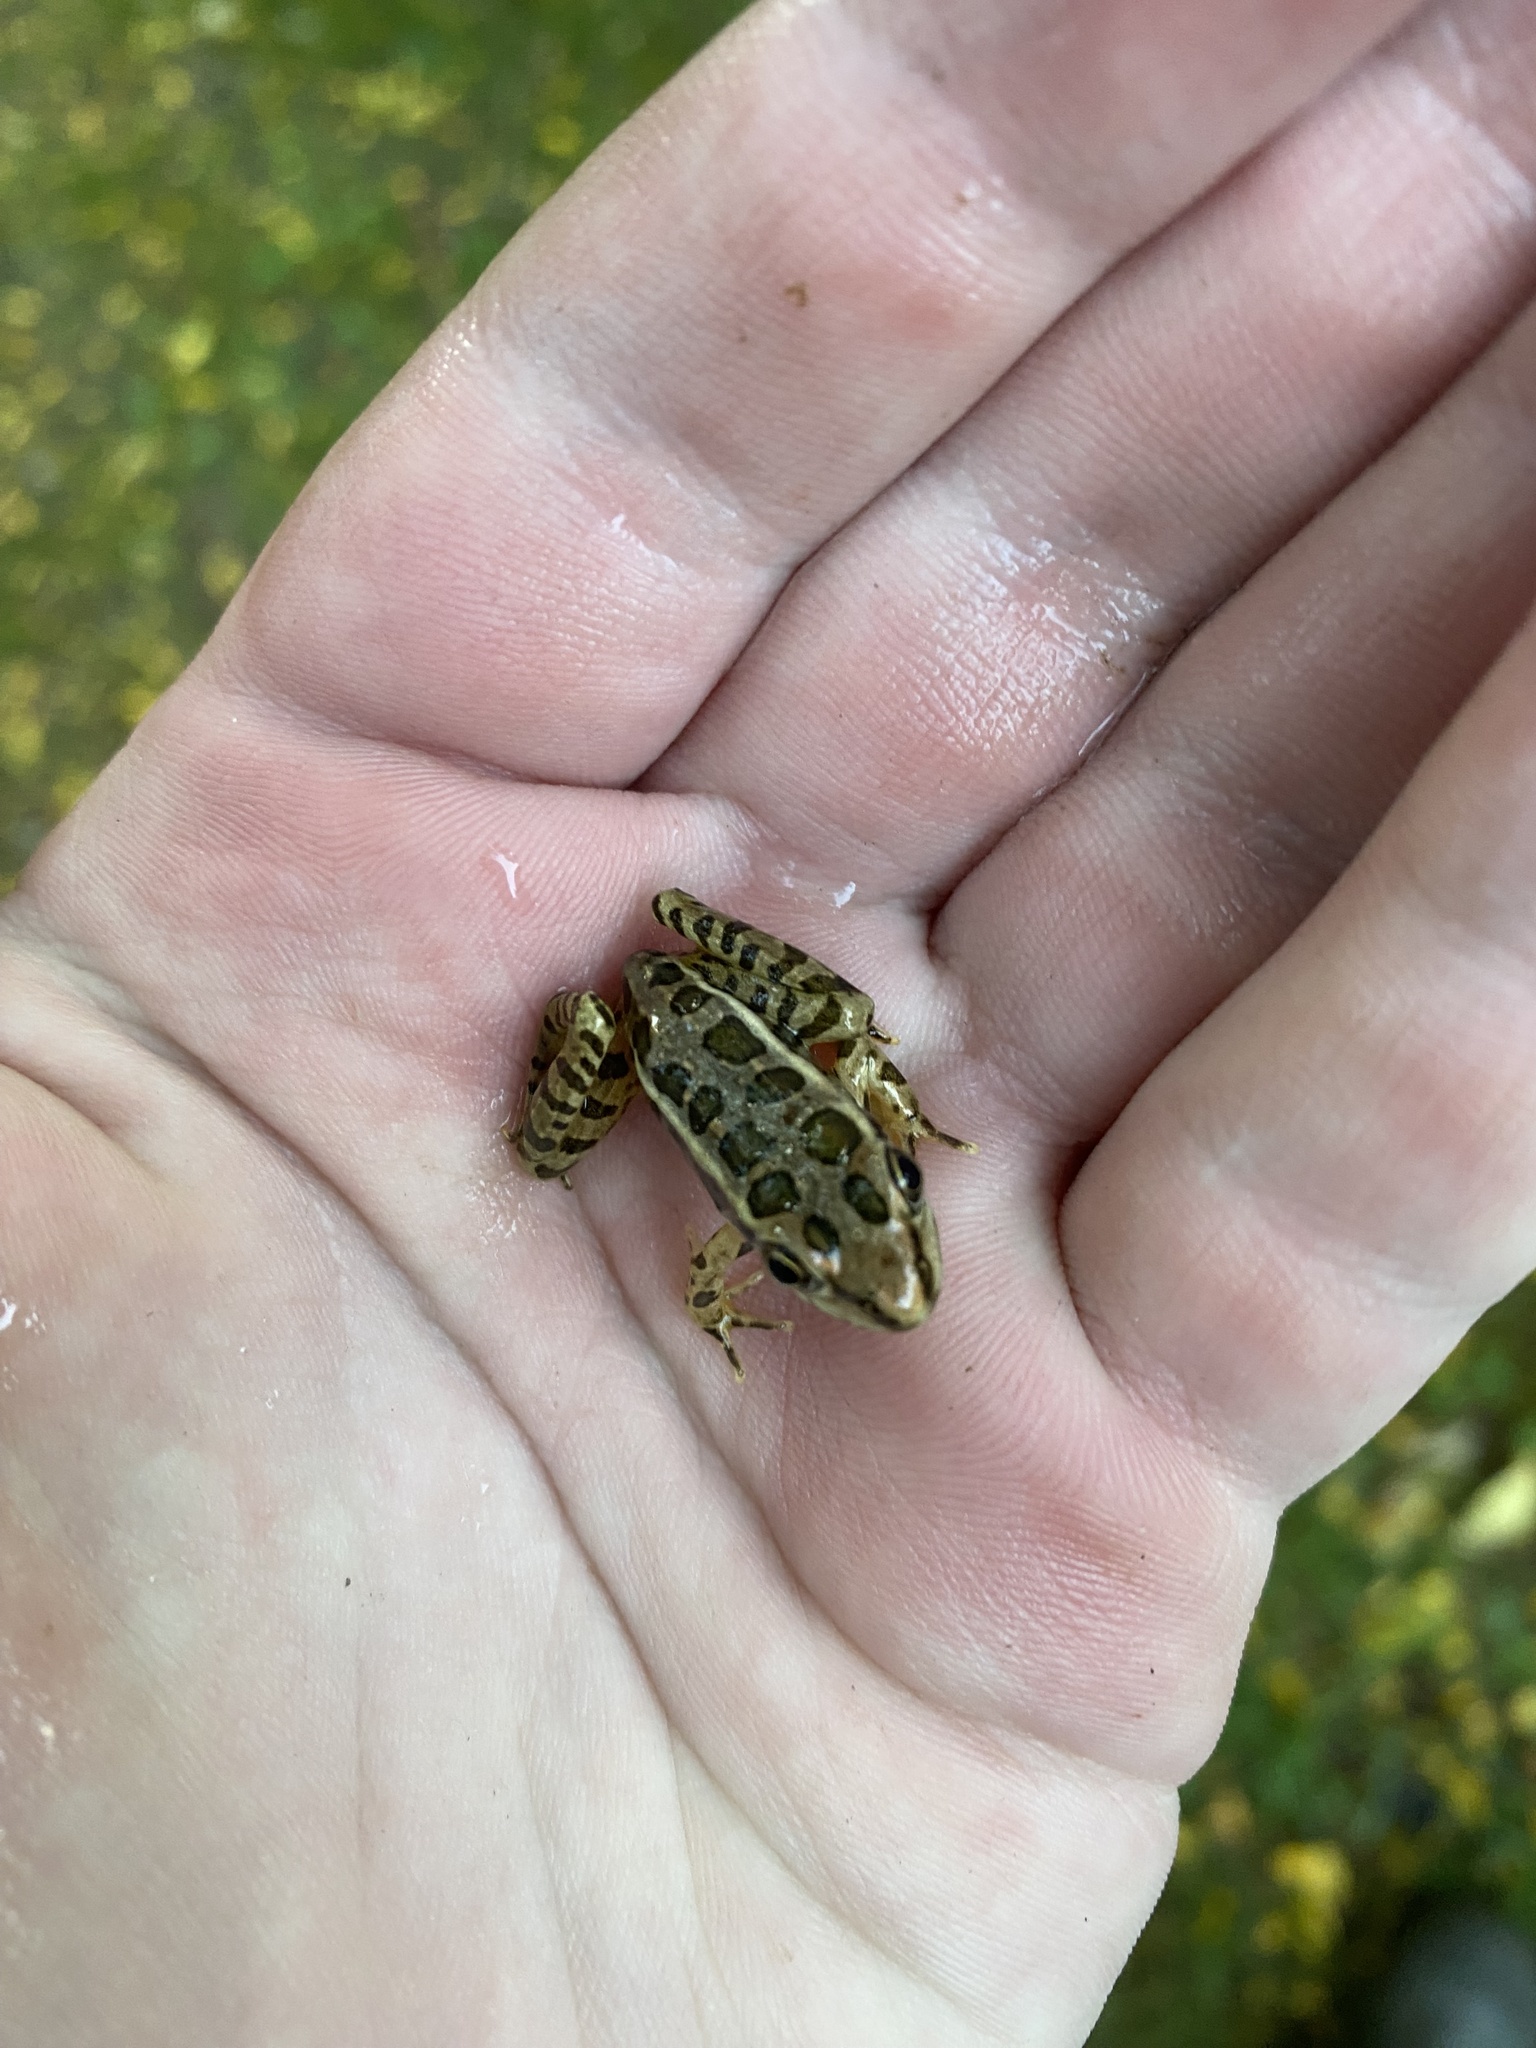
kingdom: Animalia
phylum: Chordata
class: Amphibia
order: Anura
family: Ranidae
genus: Lithobates
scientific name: Lithobates palustris
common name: Pickerel frog
